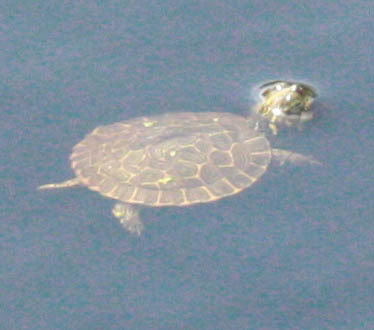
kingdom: Animalia
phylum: Chordata
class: Testudines
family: Emydidae
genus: Pseudemys
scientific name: Pseudemys concinna
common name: Eastern river cooter
